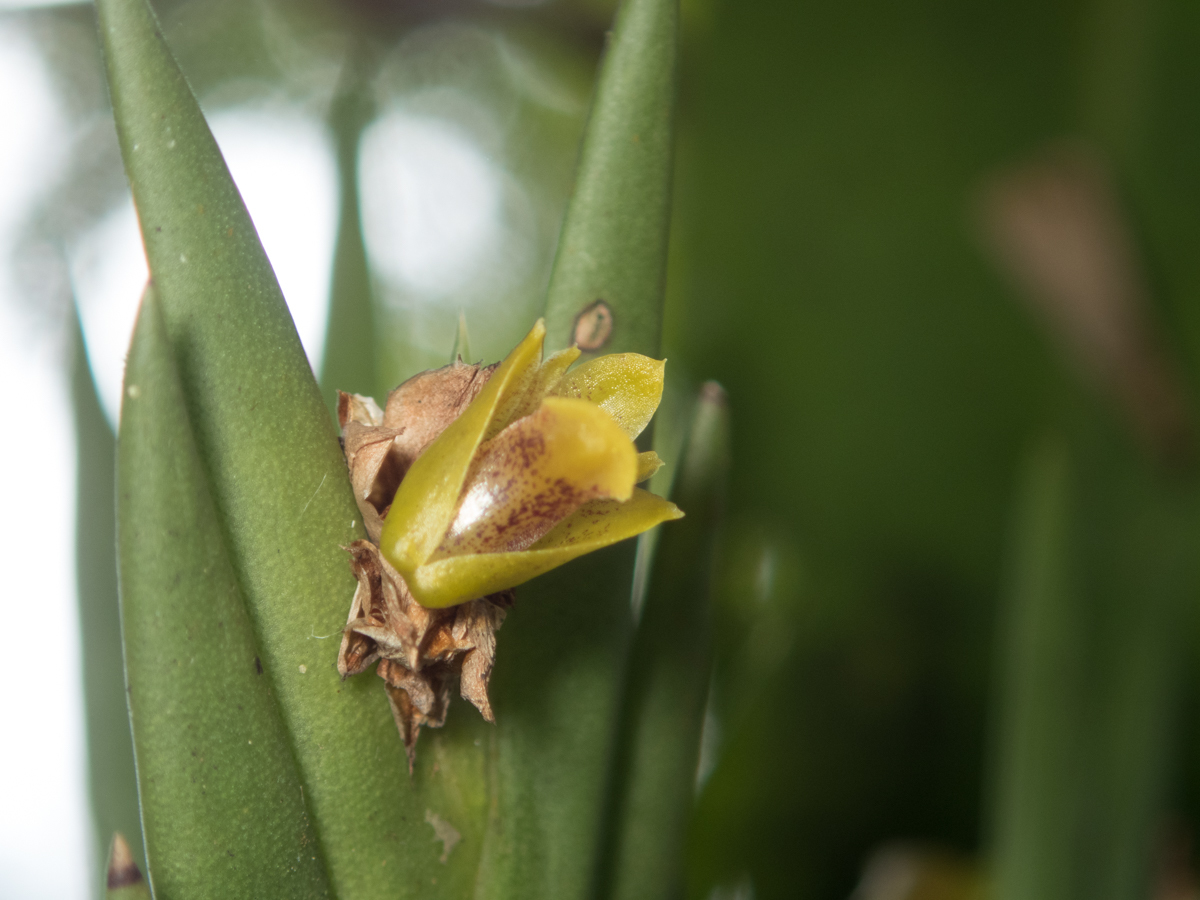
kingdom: Plantae
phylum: Tracheophyta
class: Liliopsida
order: Asparagales
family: Orchidaceae
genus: Oxystophyllum
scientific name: Oxystophyllum carnosum
